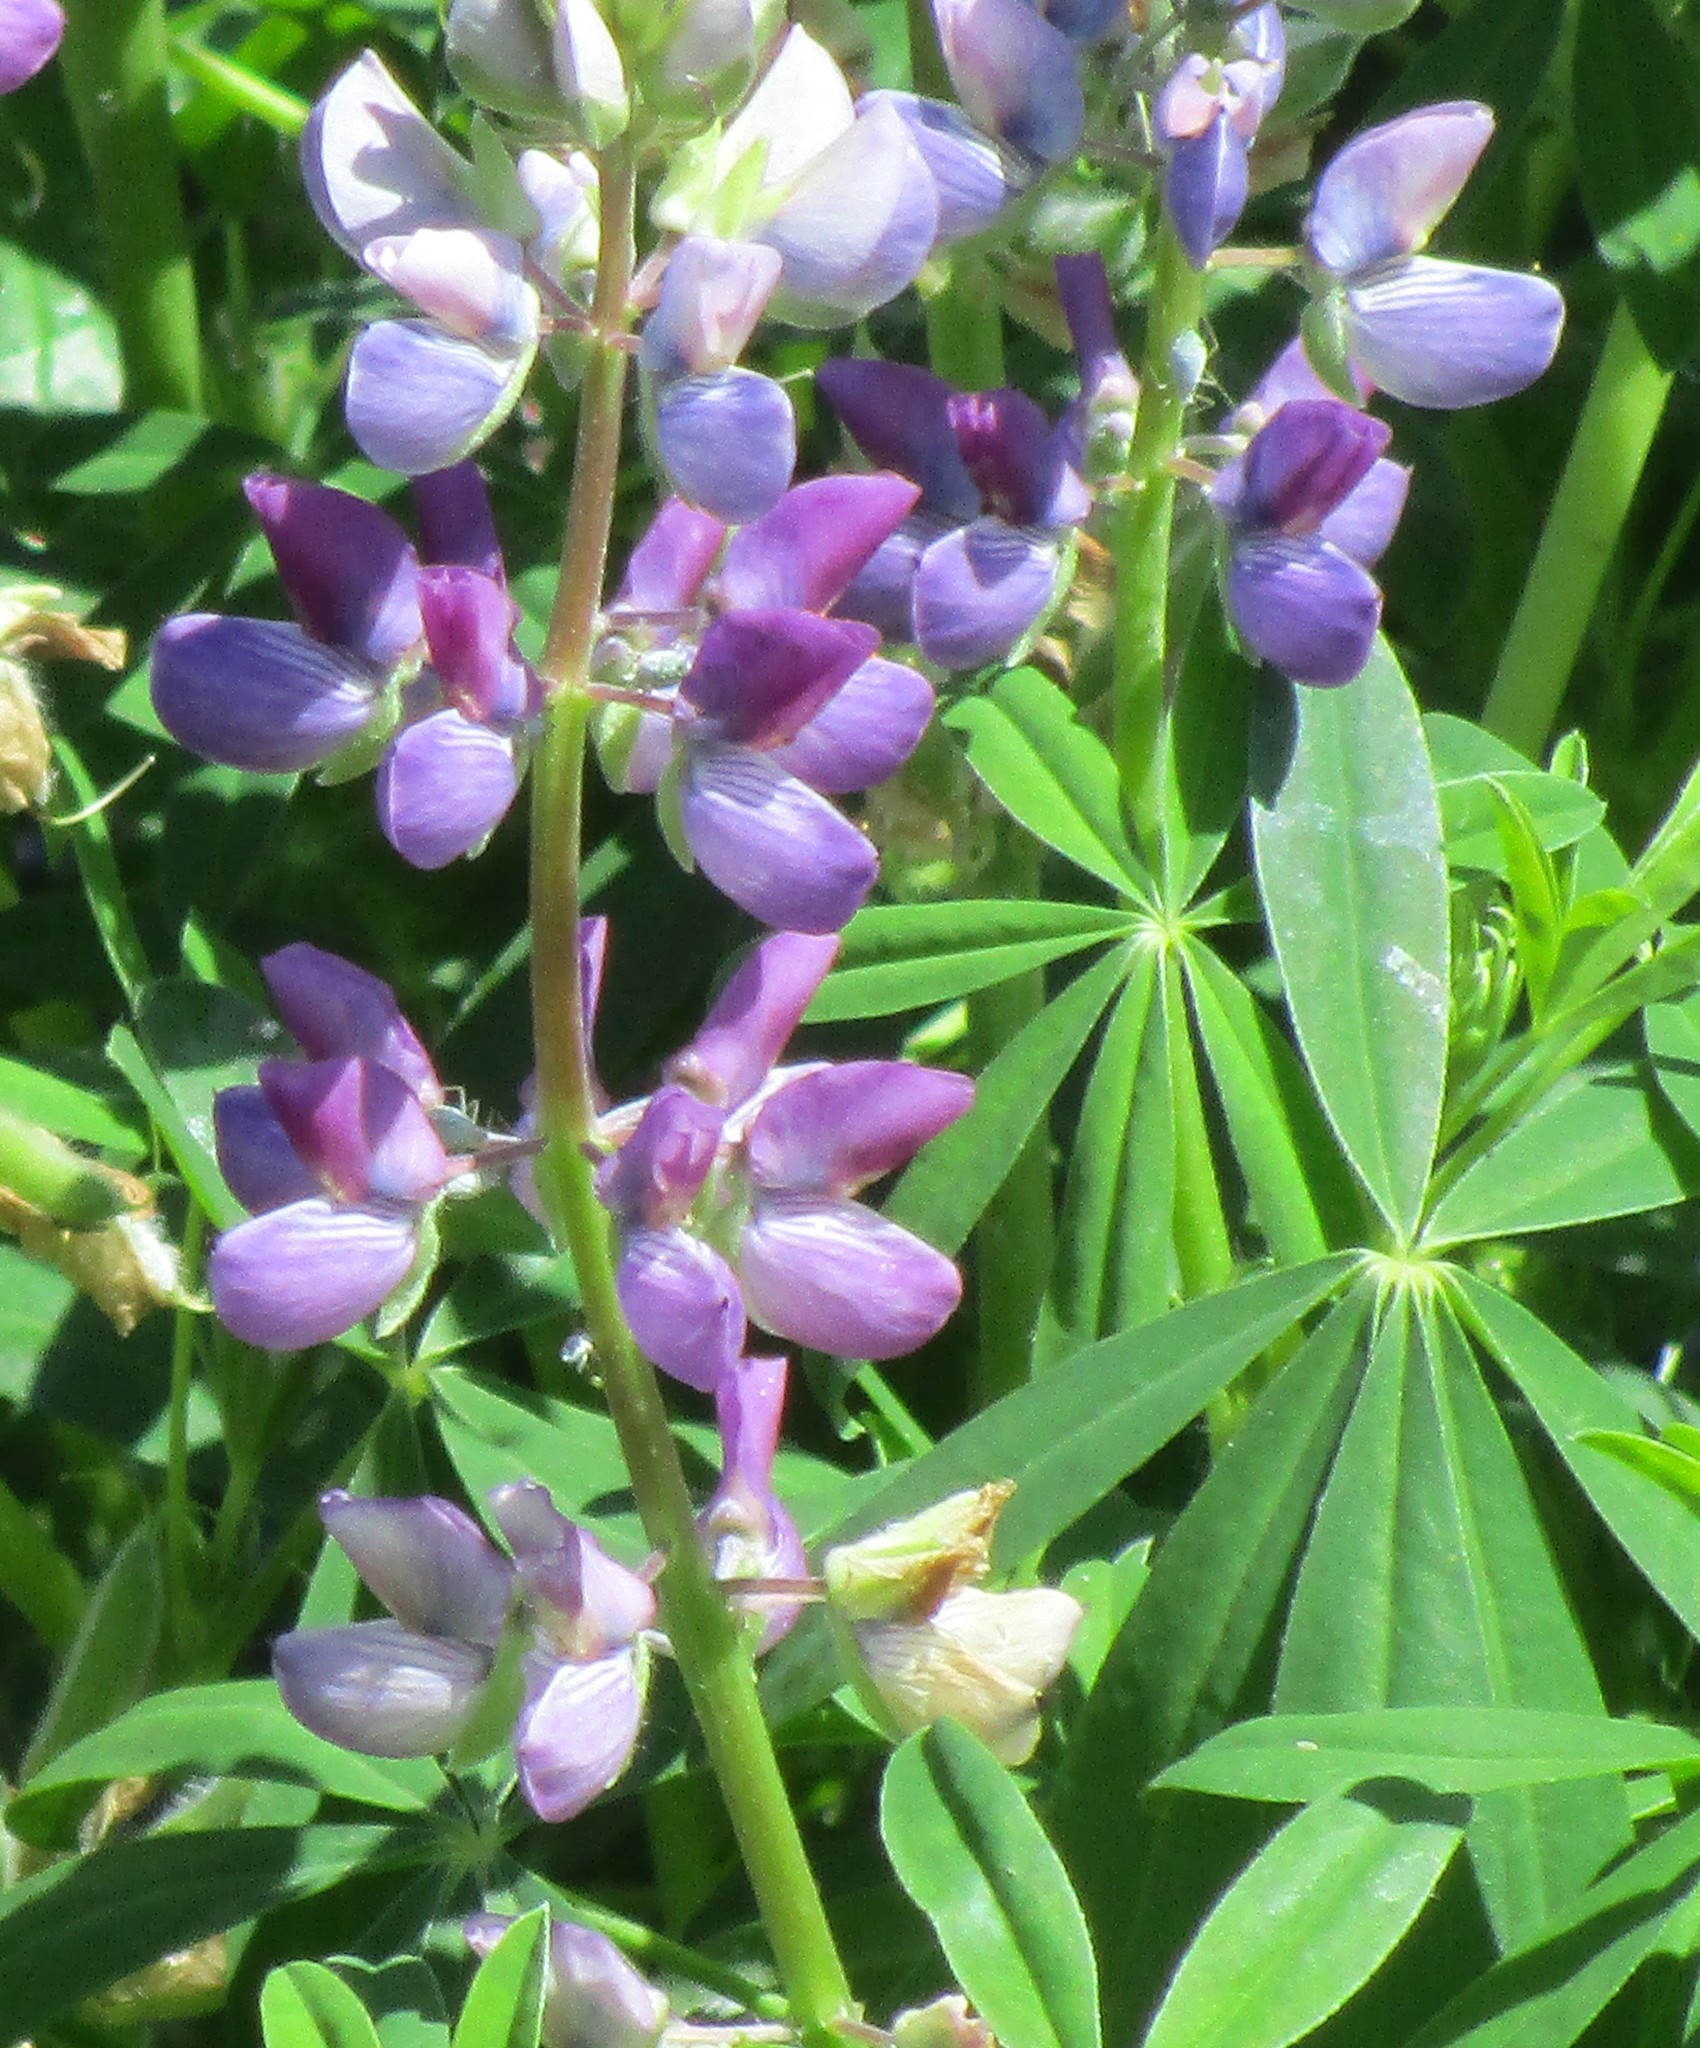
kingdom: Plantae
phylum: Tracheophyta
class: Magnoliopsida
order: Fabales
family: Fabaceae
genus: Lupinus
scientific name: Lupinus latifolius
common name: Broad-leaved lupine
